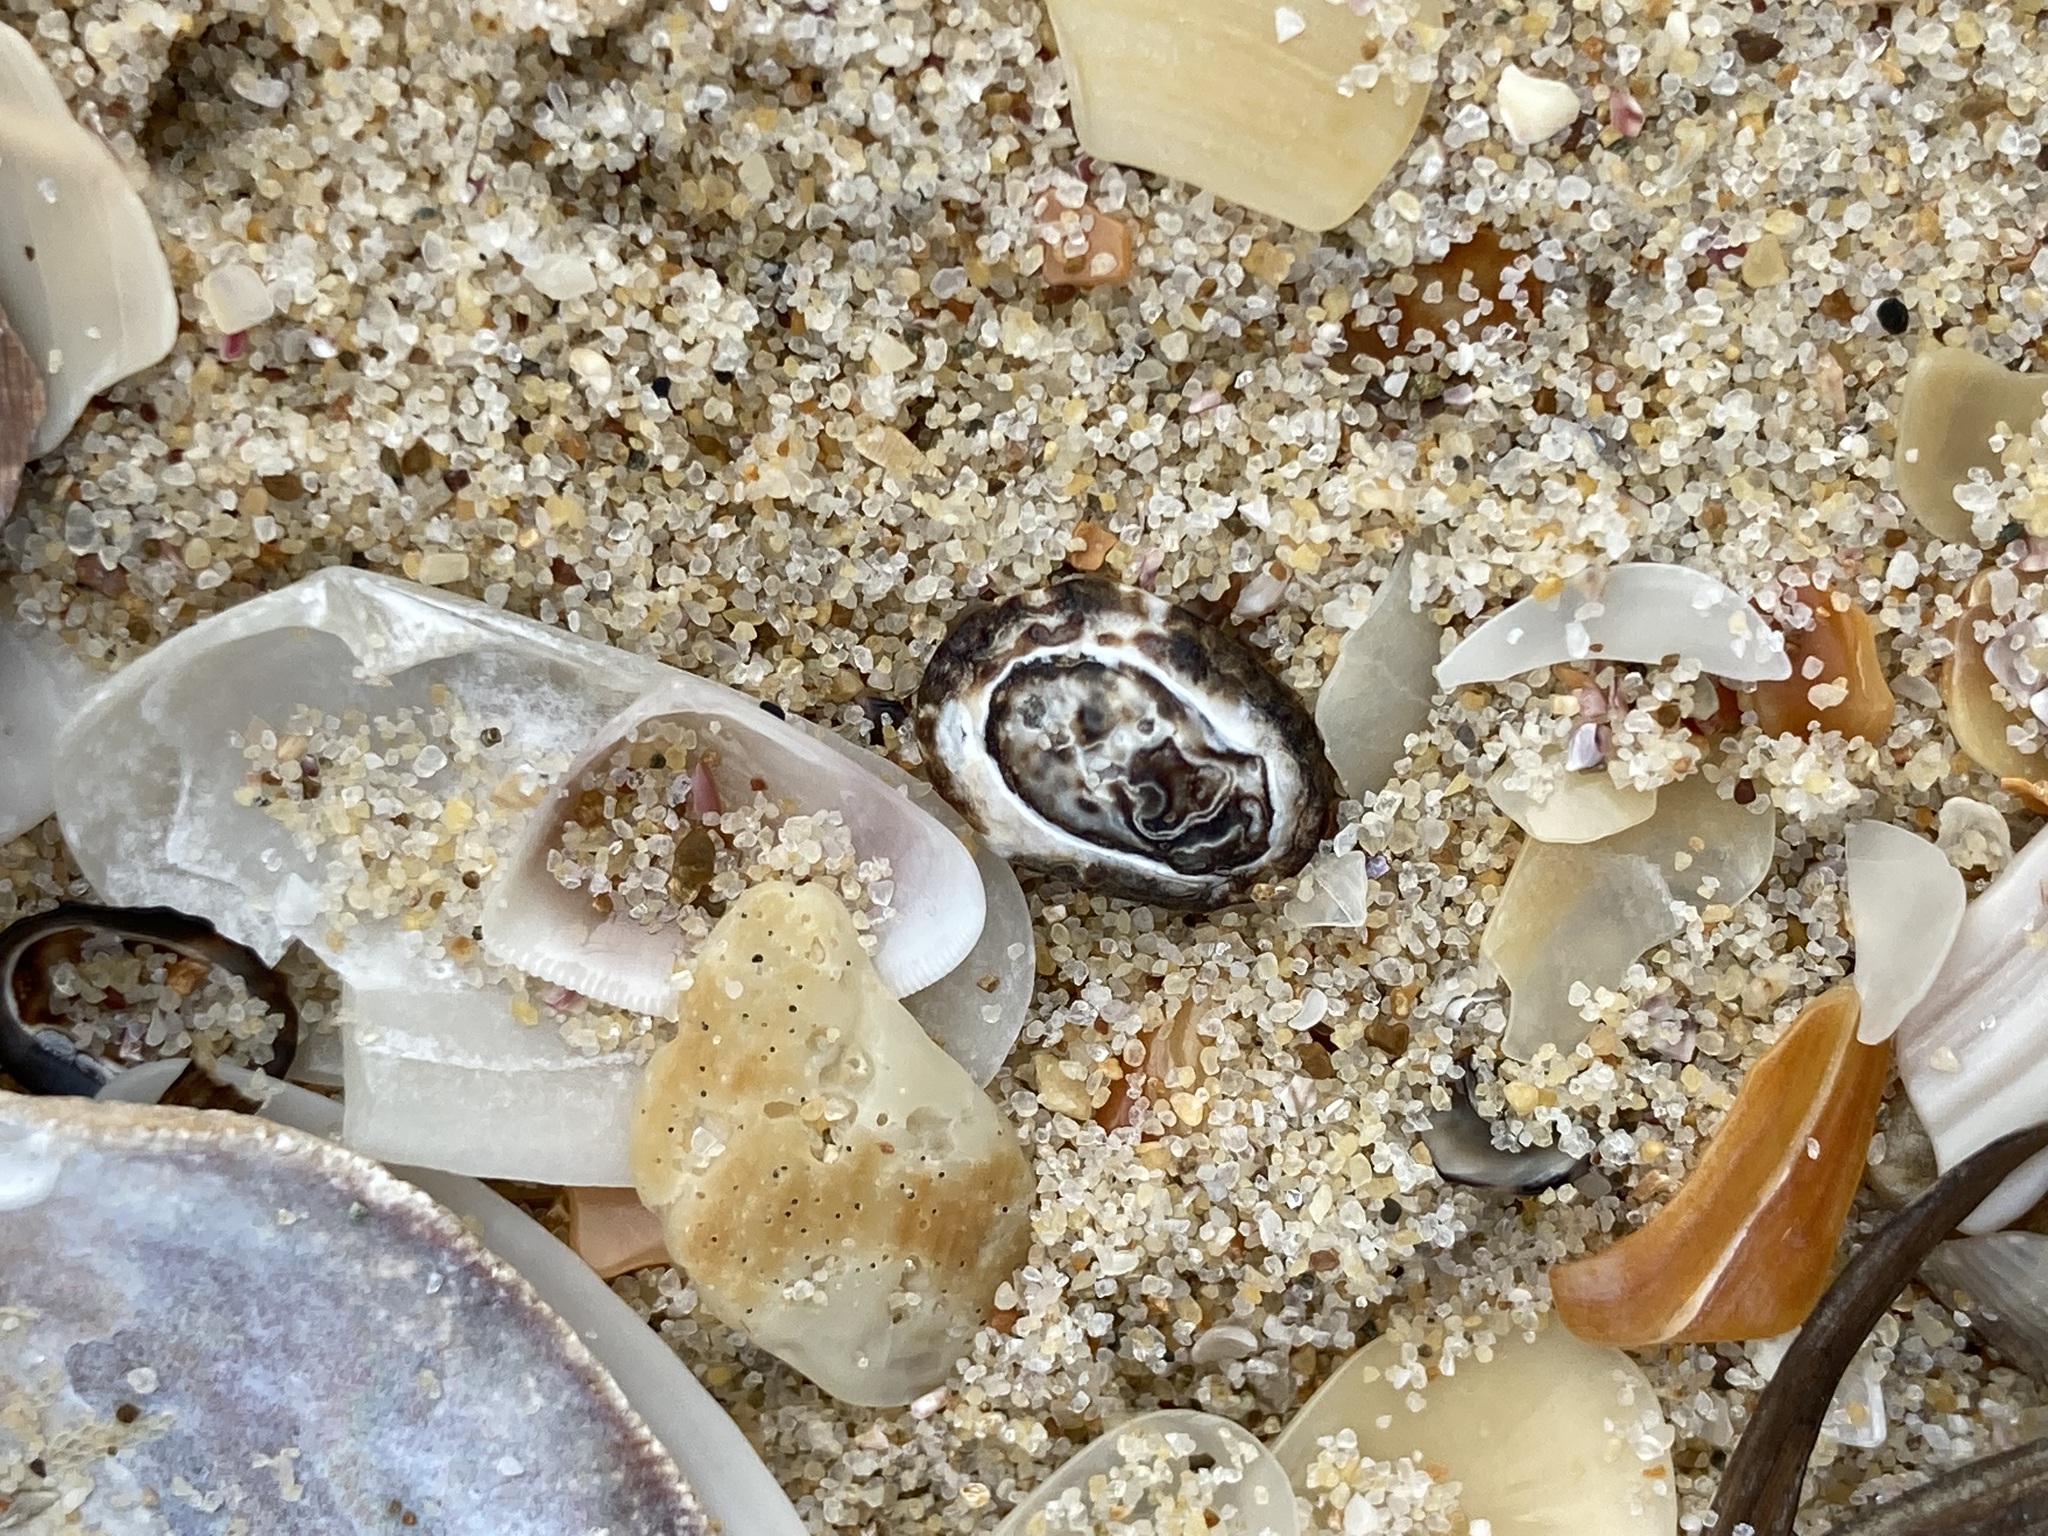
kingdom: Animalia
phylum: Mollusca
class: Gastropoda
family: Lottiidae
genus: Patelloida
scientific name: Patelloida latistrigata
